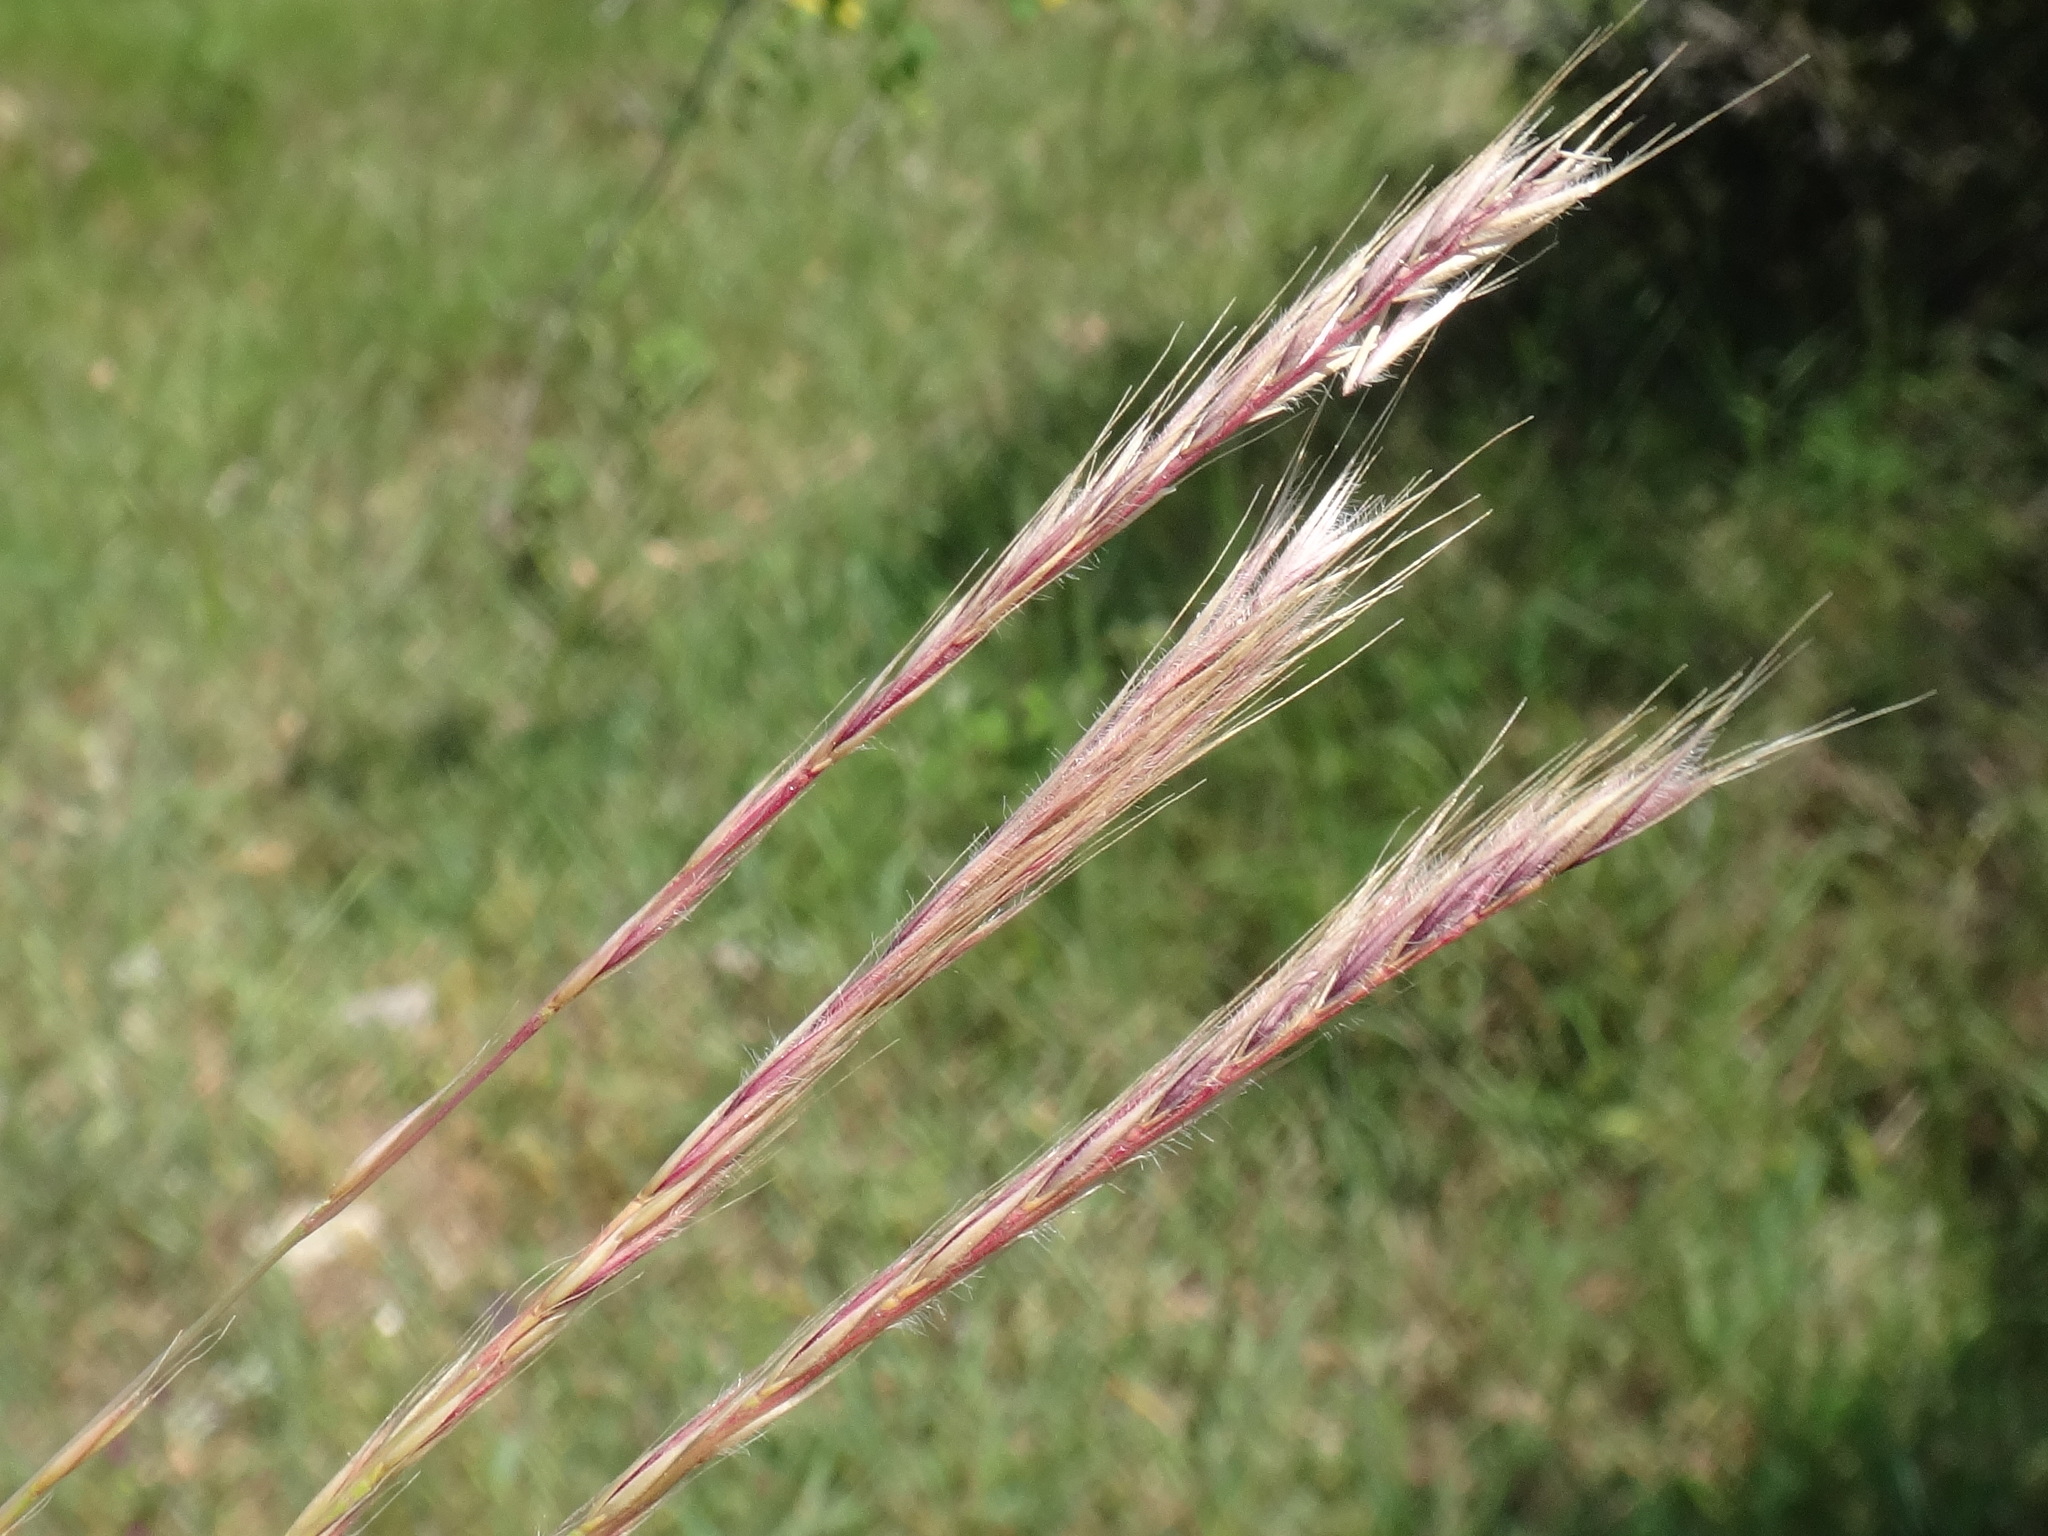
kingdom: Plantae
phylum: Tracheophyta
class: Liliopsida
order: Poales
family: Poaceae
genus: Festuca
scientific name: Festuca ambigua
